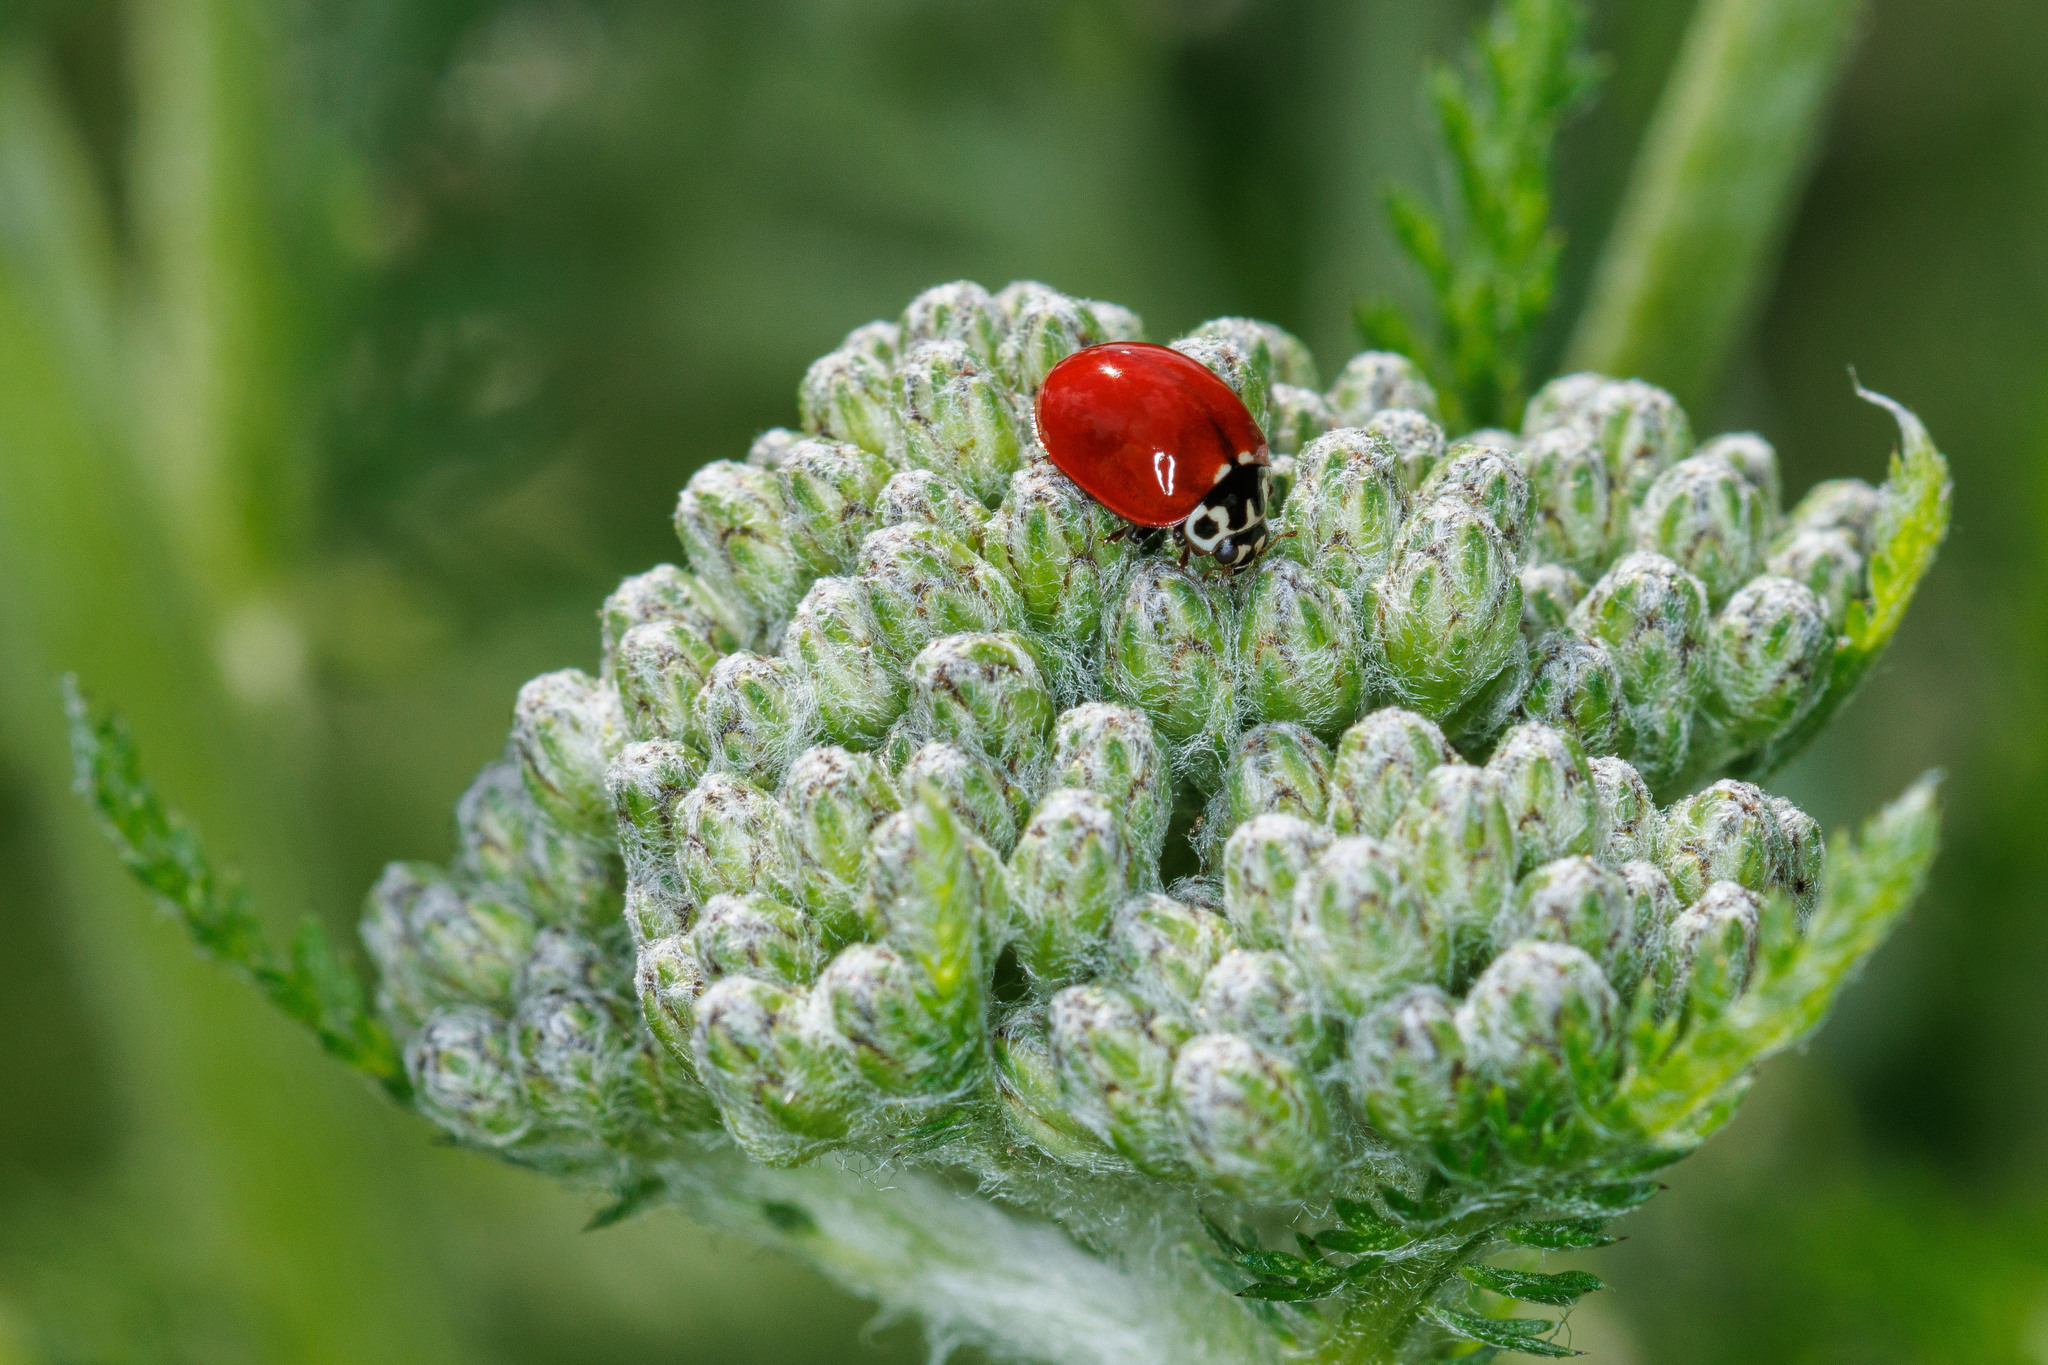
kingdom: Animalia
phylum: Arthropoda
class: Insecta
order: Coleoptera
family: Coccinellidae
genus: Cycloneda
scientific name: Cycloneda polita
